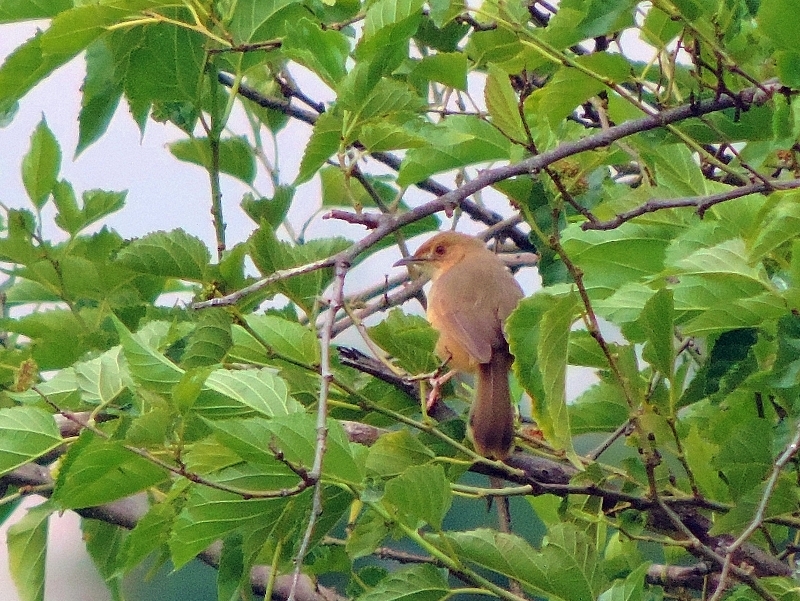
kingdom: Animalia
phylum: Chordata
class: Aves
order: Passeriformes
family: Cisticolidae
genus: Cisticola
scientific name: Cisticola erythrops
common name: Red-faced cisticola
